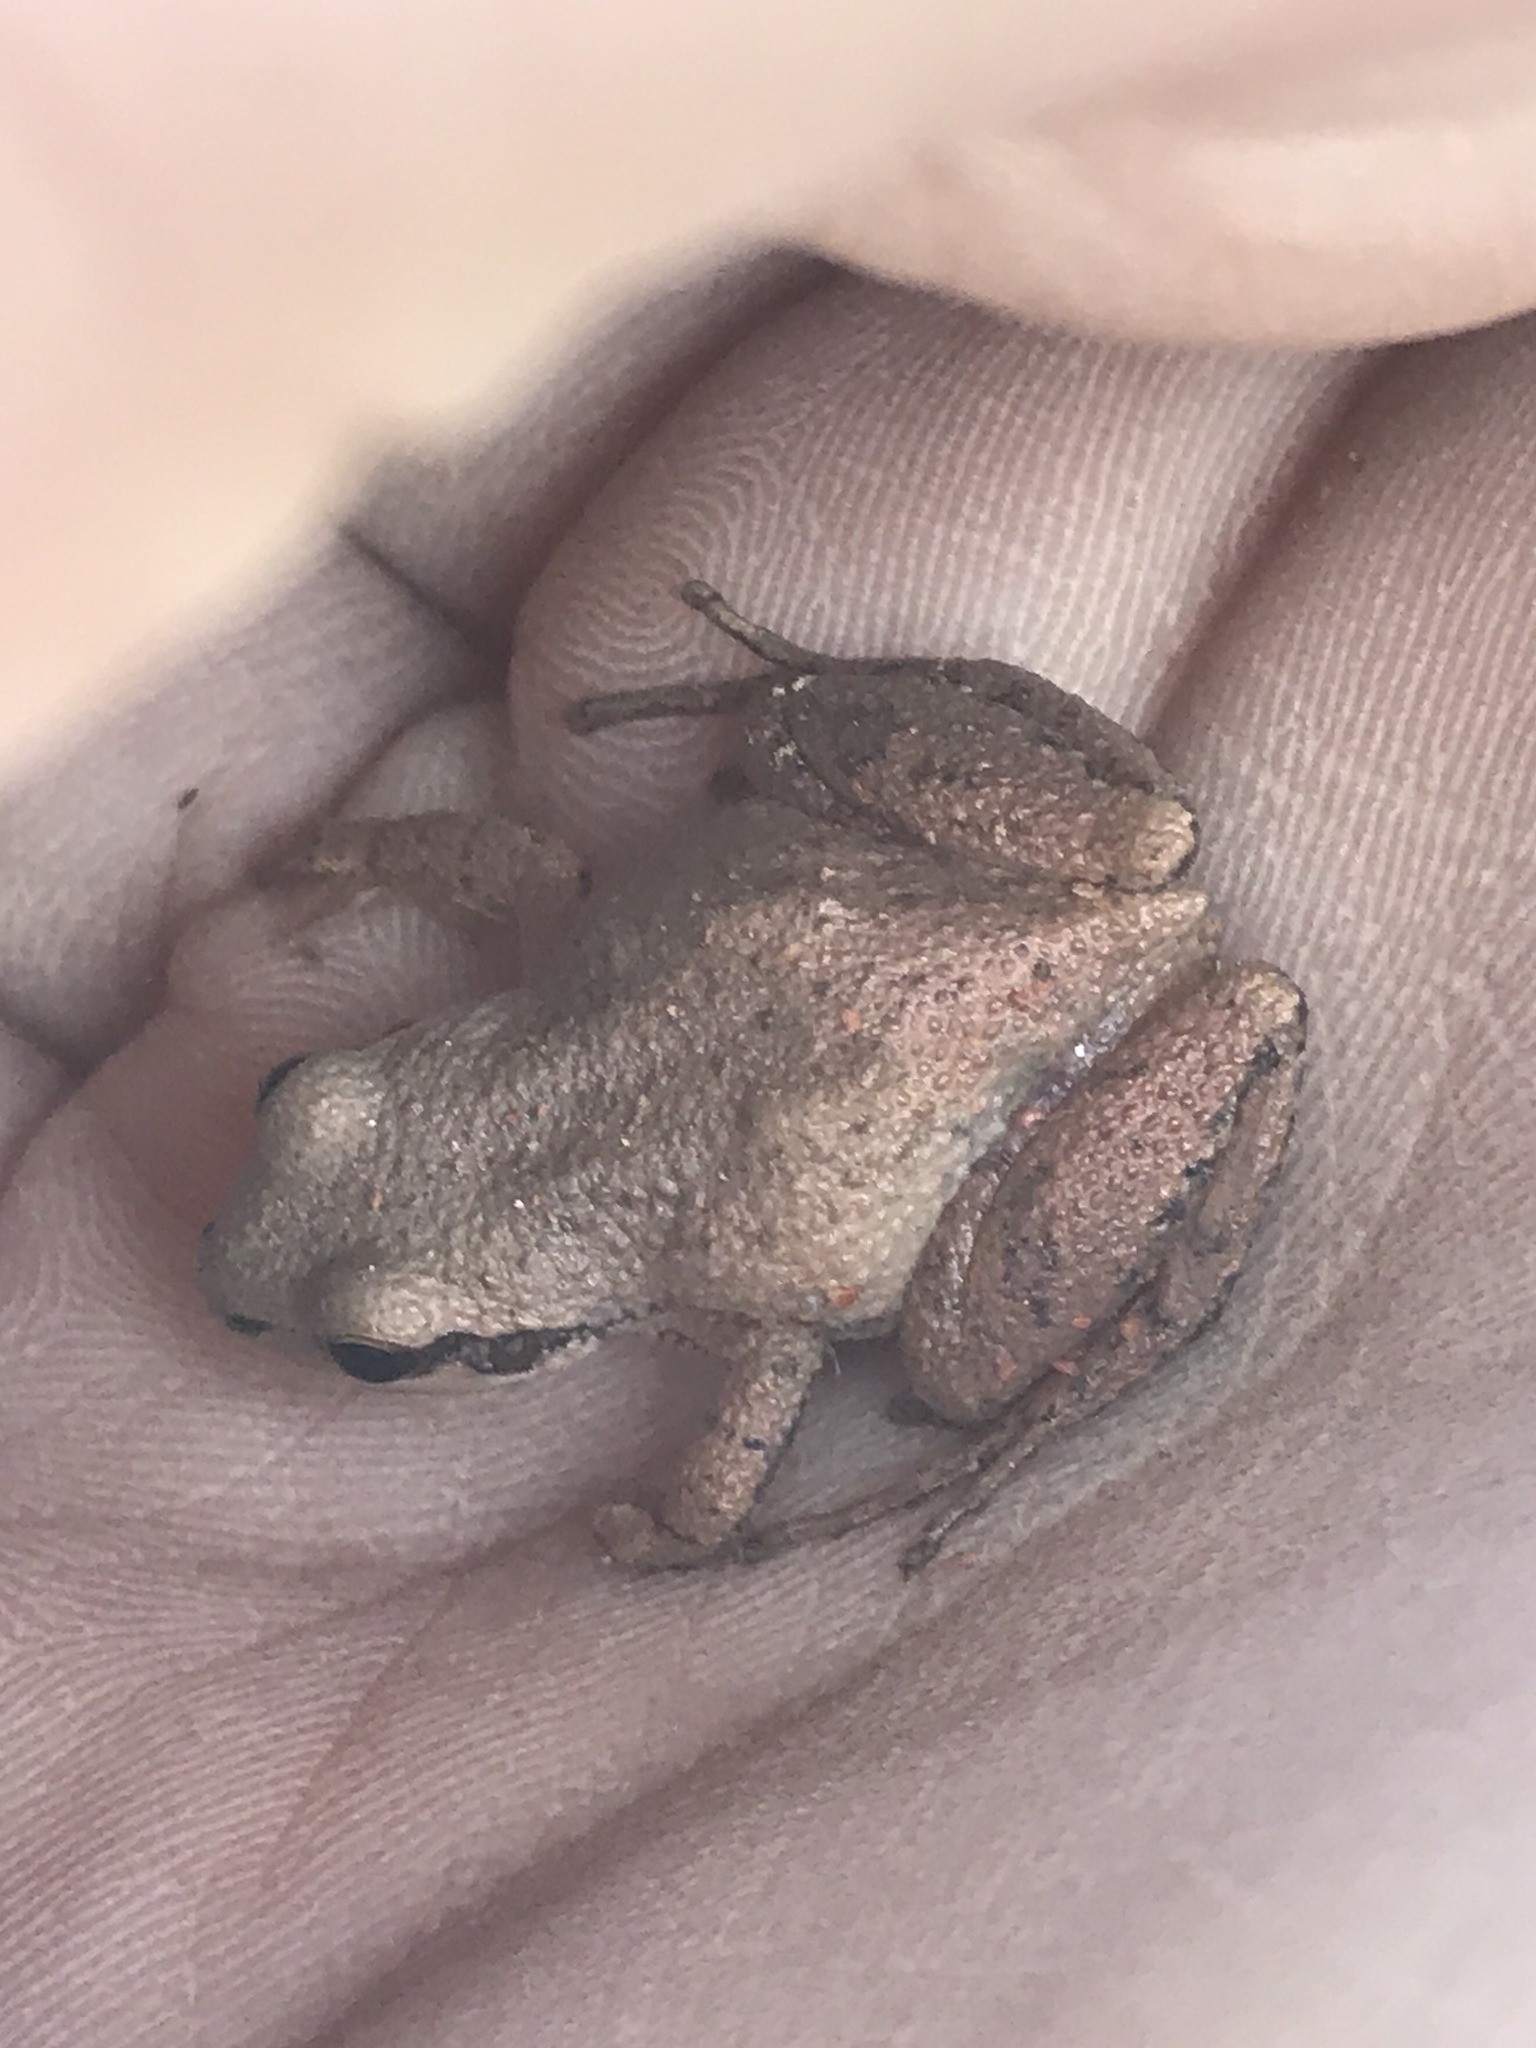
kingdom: Animalia
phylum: Chordata
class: Amphibia
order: Anura
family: Hylidae
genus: Pseudacris
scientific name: Pseudacris feriarum
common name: Upland chorus frog
